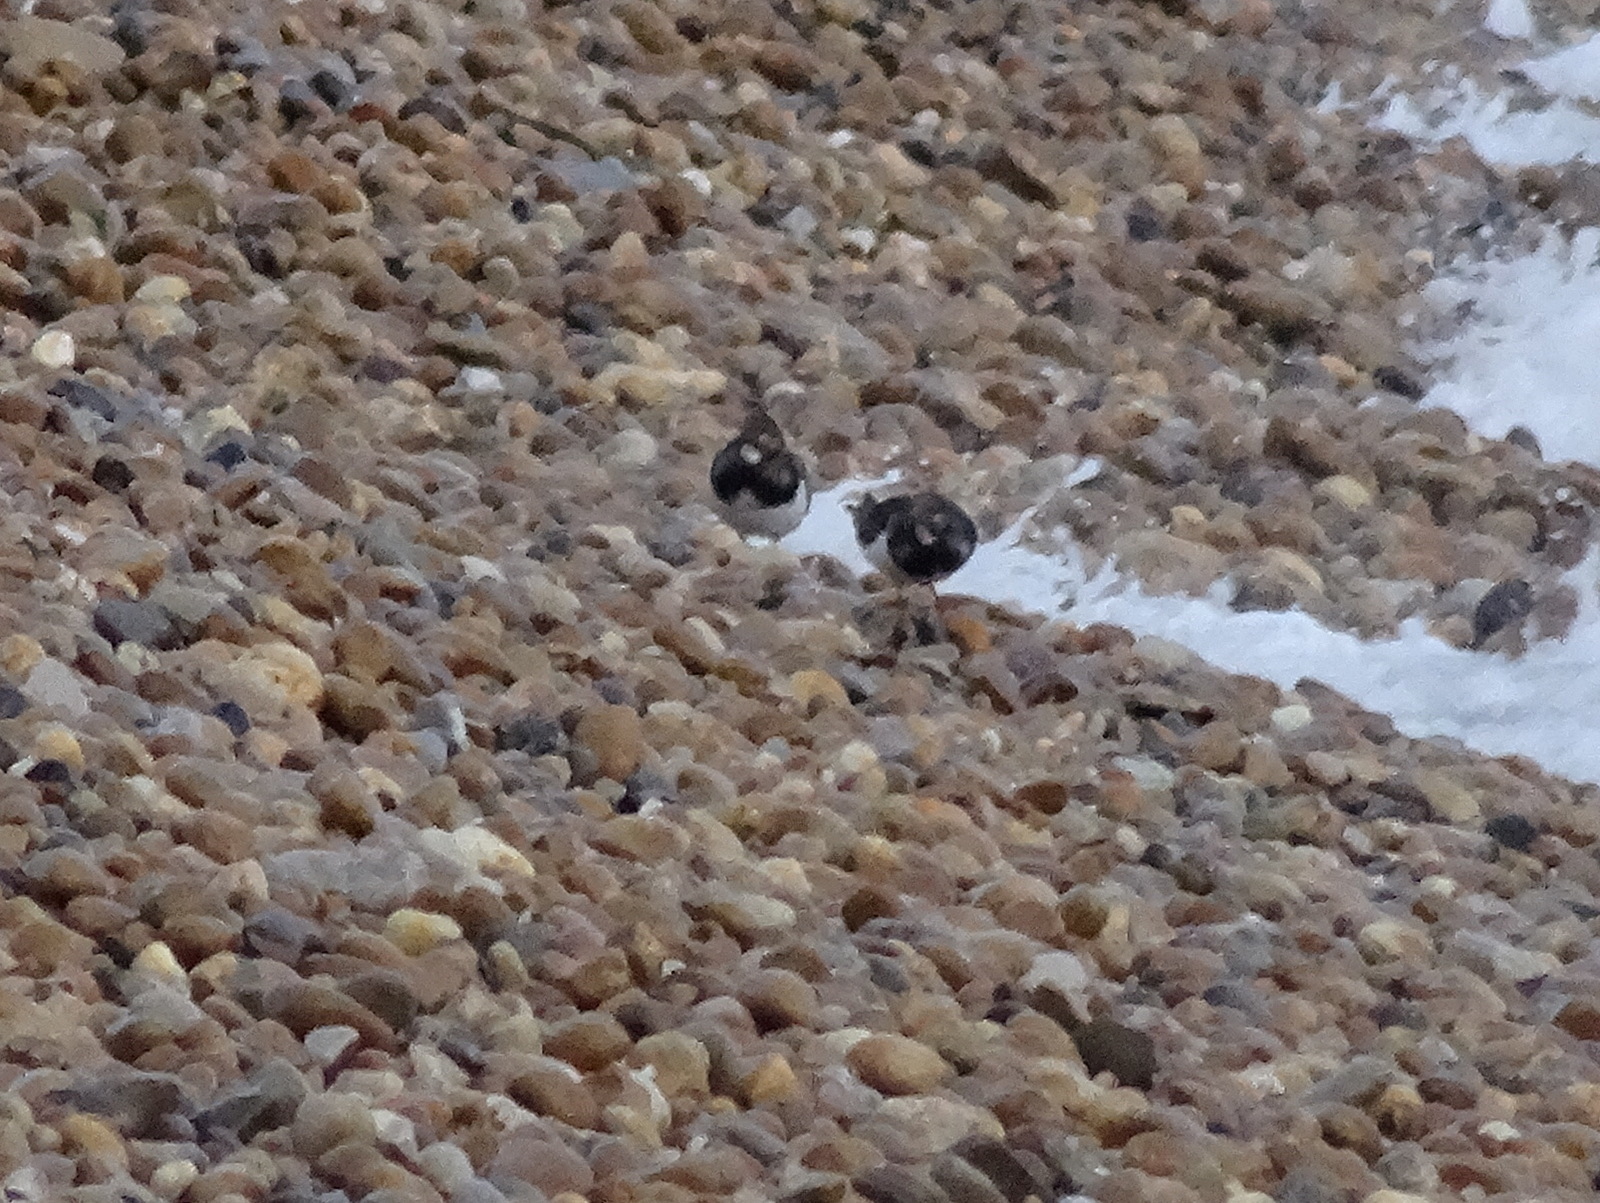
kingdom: Animalia
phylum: Chordata
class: Aves
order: Charadriiformes
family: Scolopacidae
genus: Arenaria
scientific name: Arenaria interpres
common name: Ruddy turnstone
